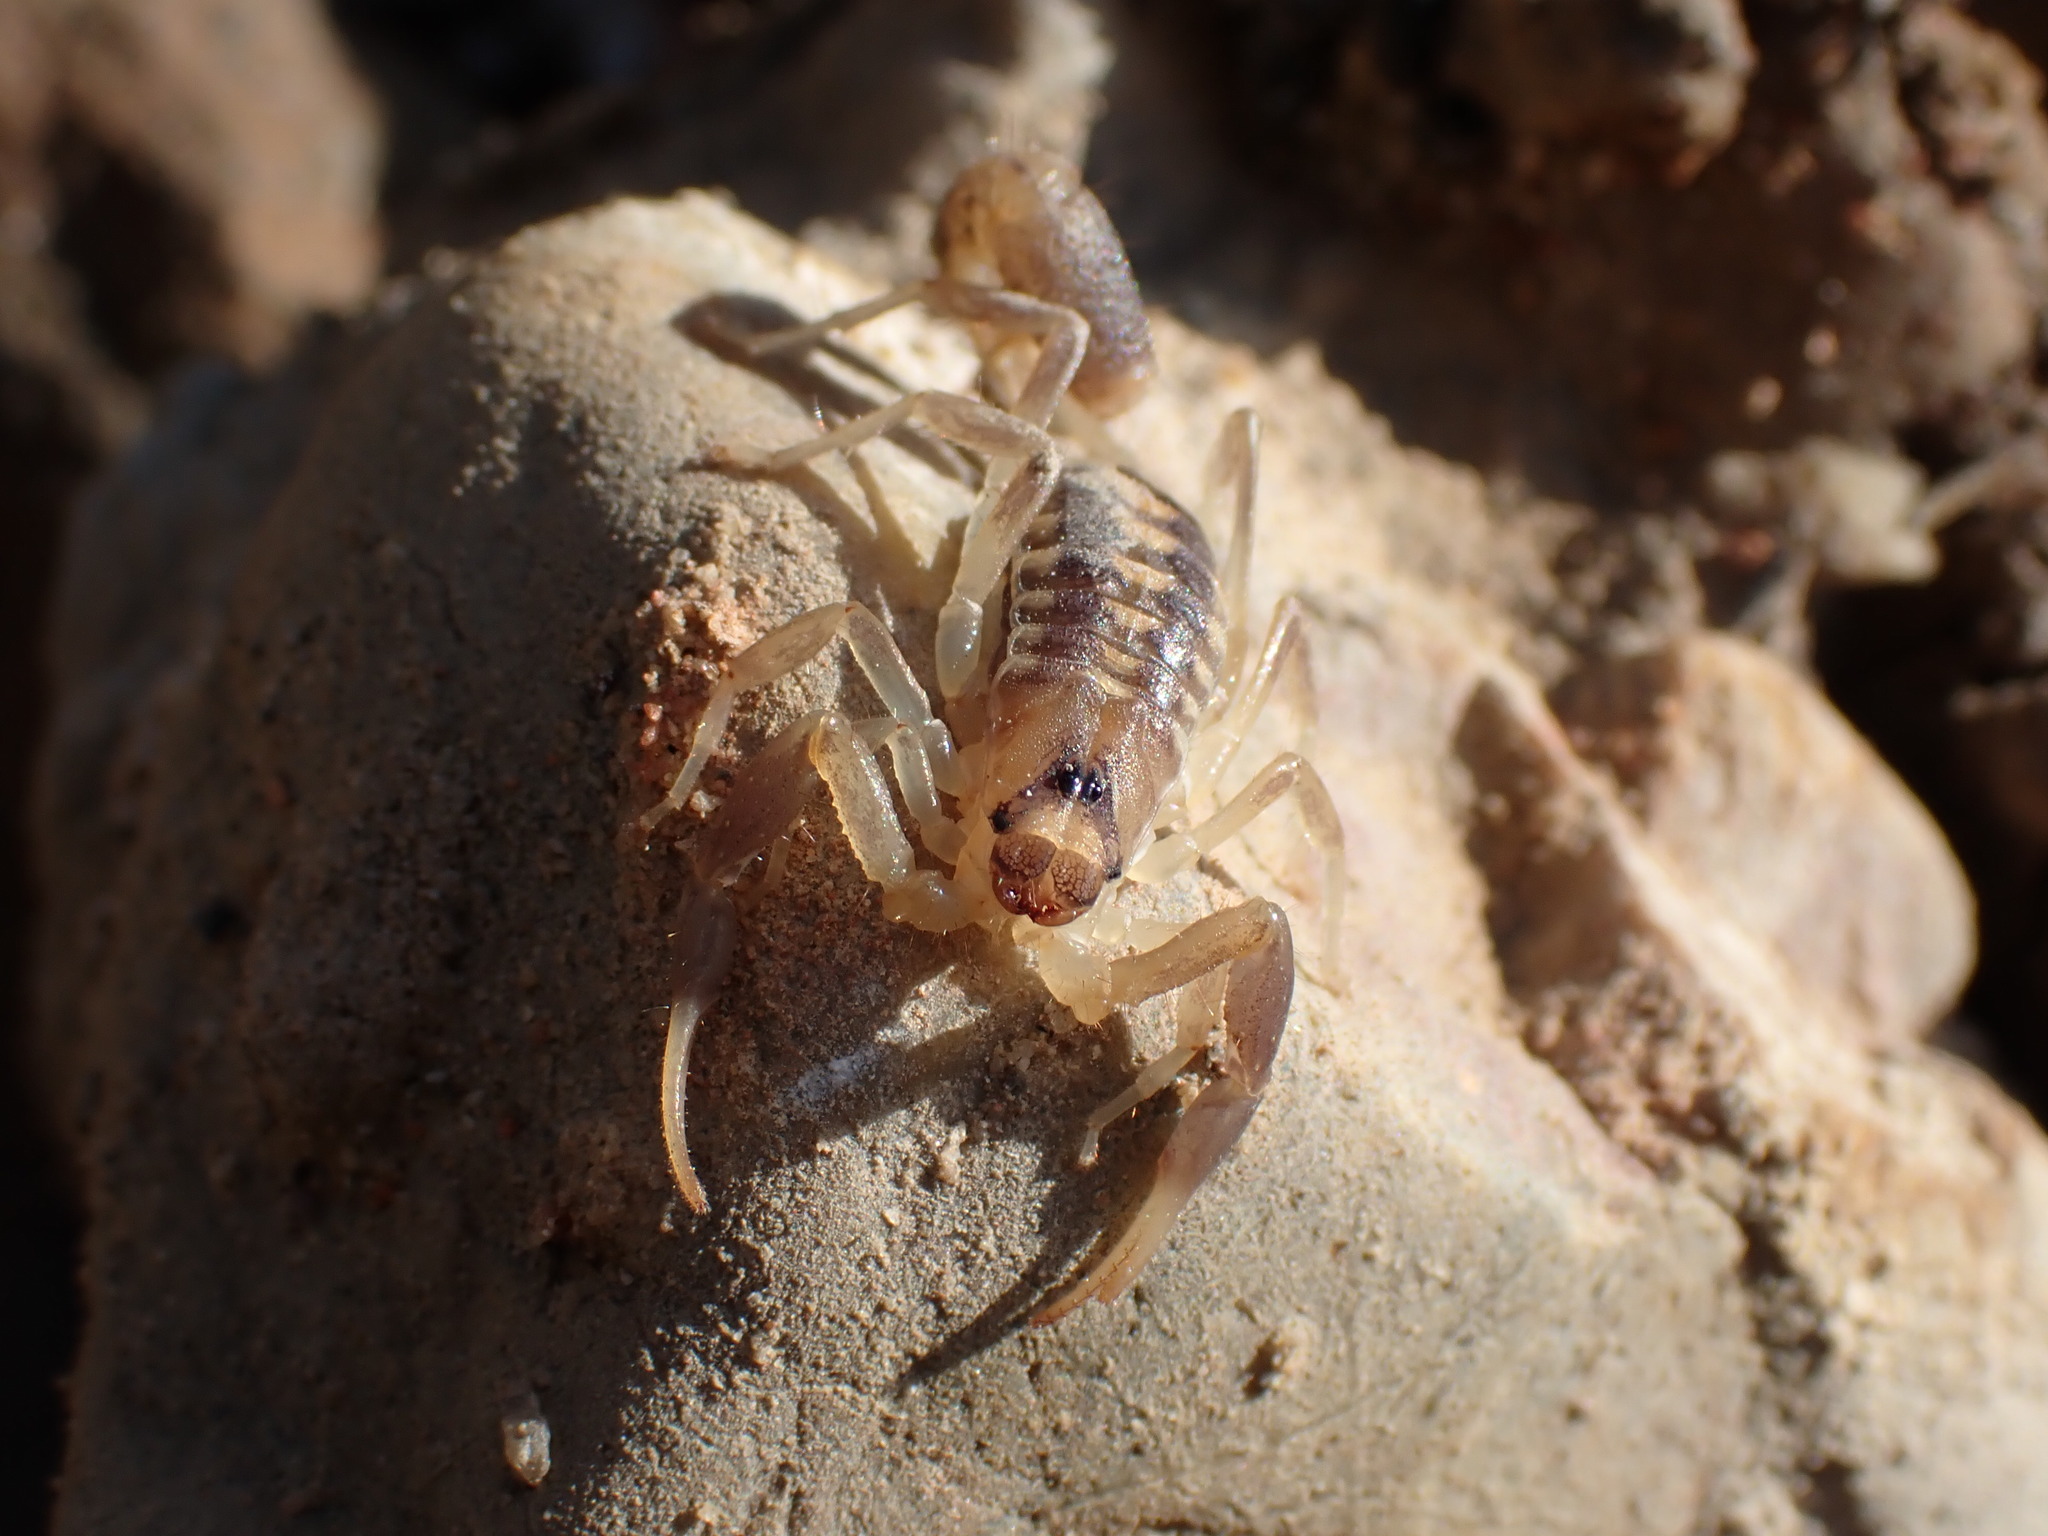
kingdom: Animalia
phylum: Arthropoda
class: Arachnida
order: Scorpiones
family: Buthidae
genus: Uroplectes
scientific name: Uroplectes triangulifer
